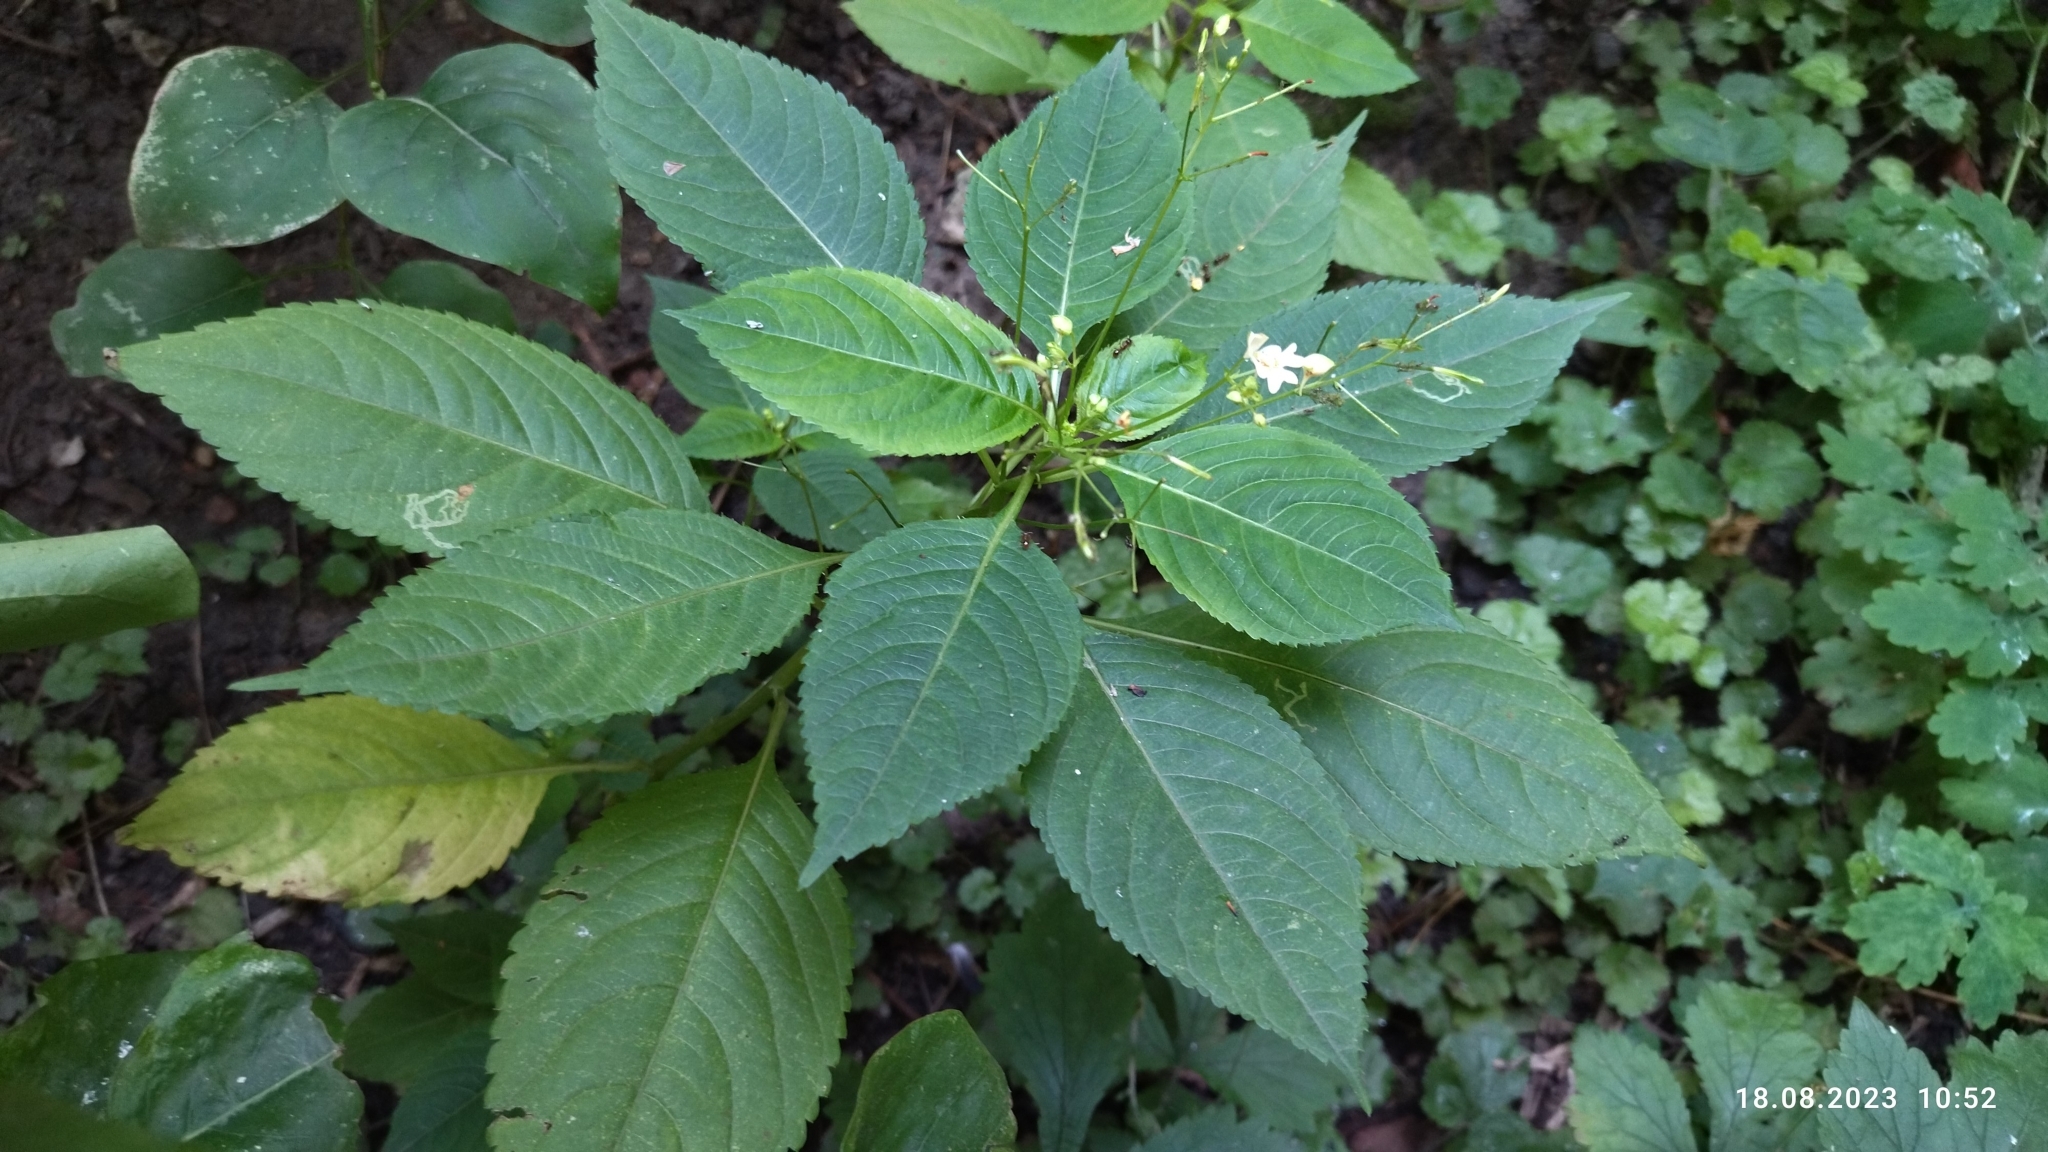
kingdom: Plantae
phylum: Tracheophyta
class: Magnoliopsida
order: Ericales
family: Balsaminaceae
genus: Impatiens
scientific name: Impatiens parviflora
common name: Small balsam
